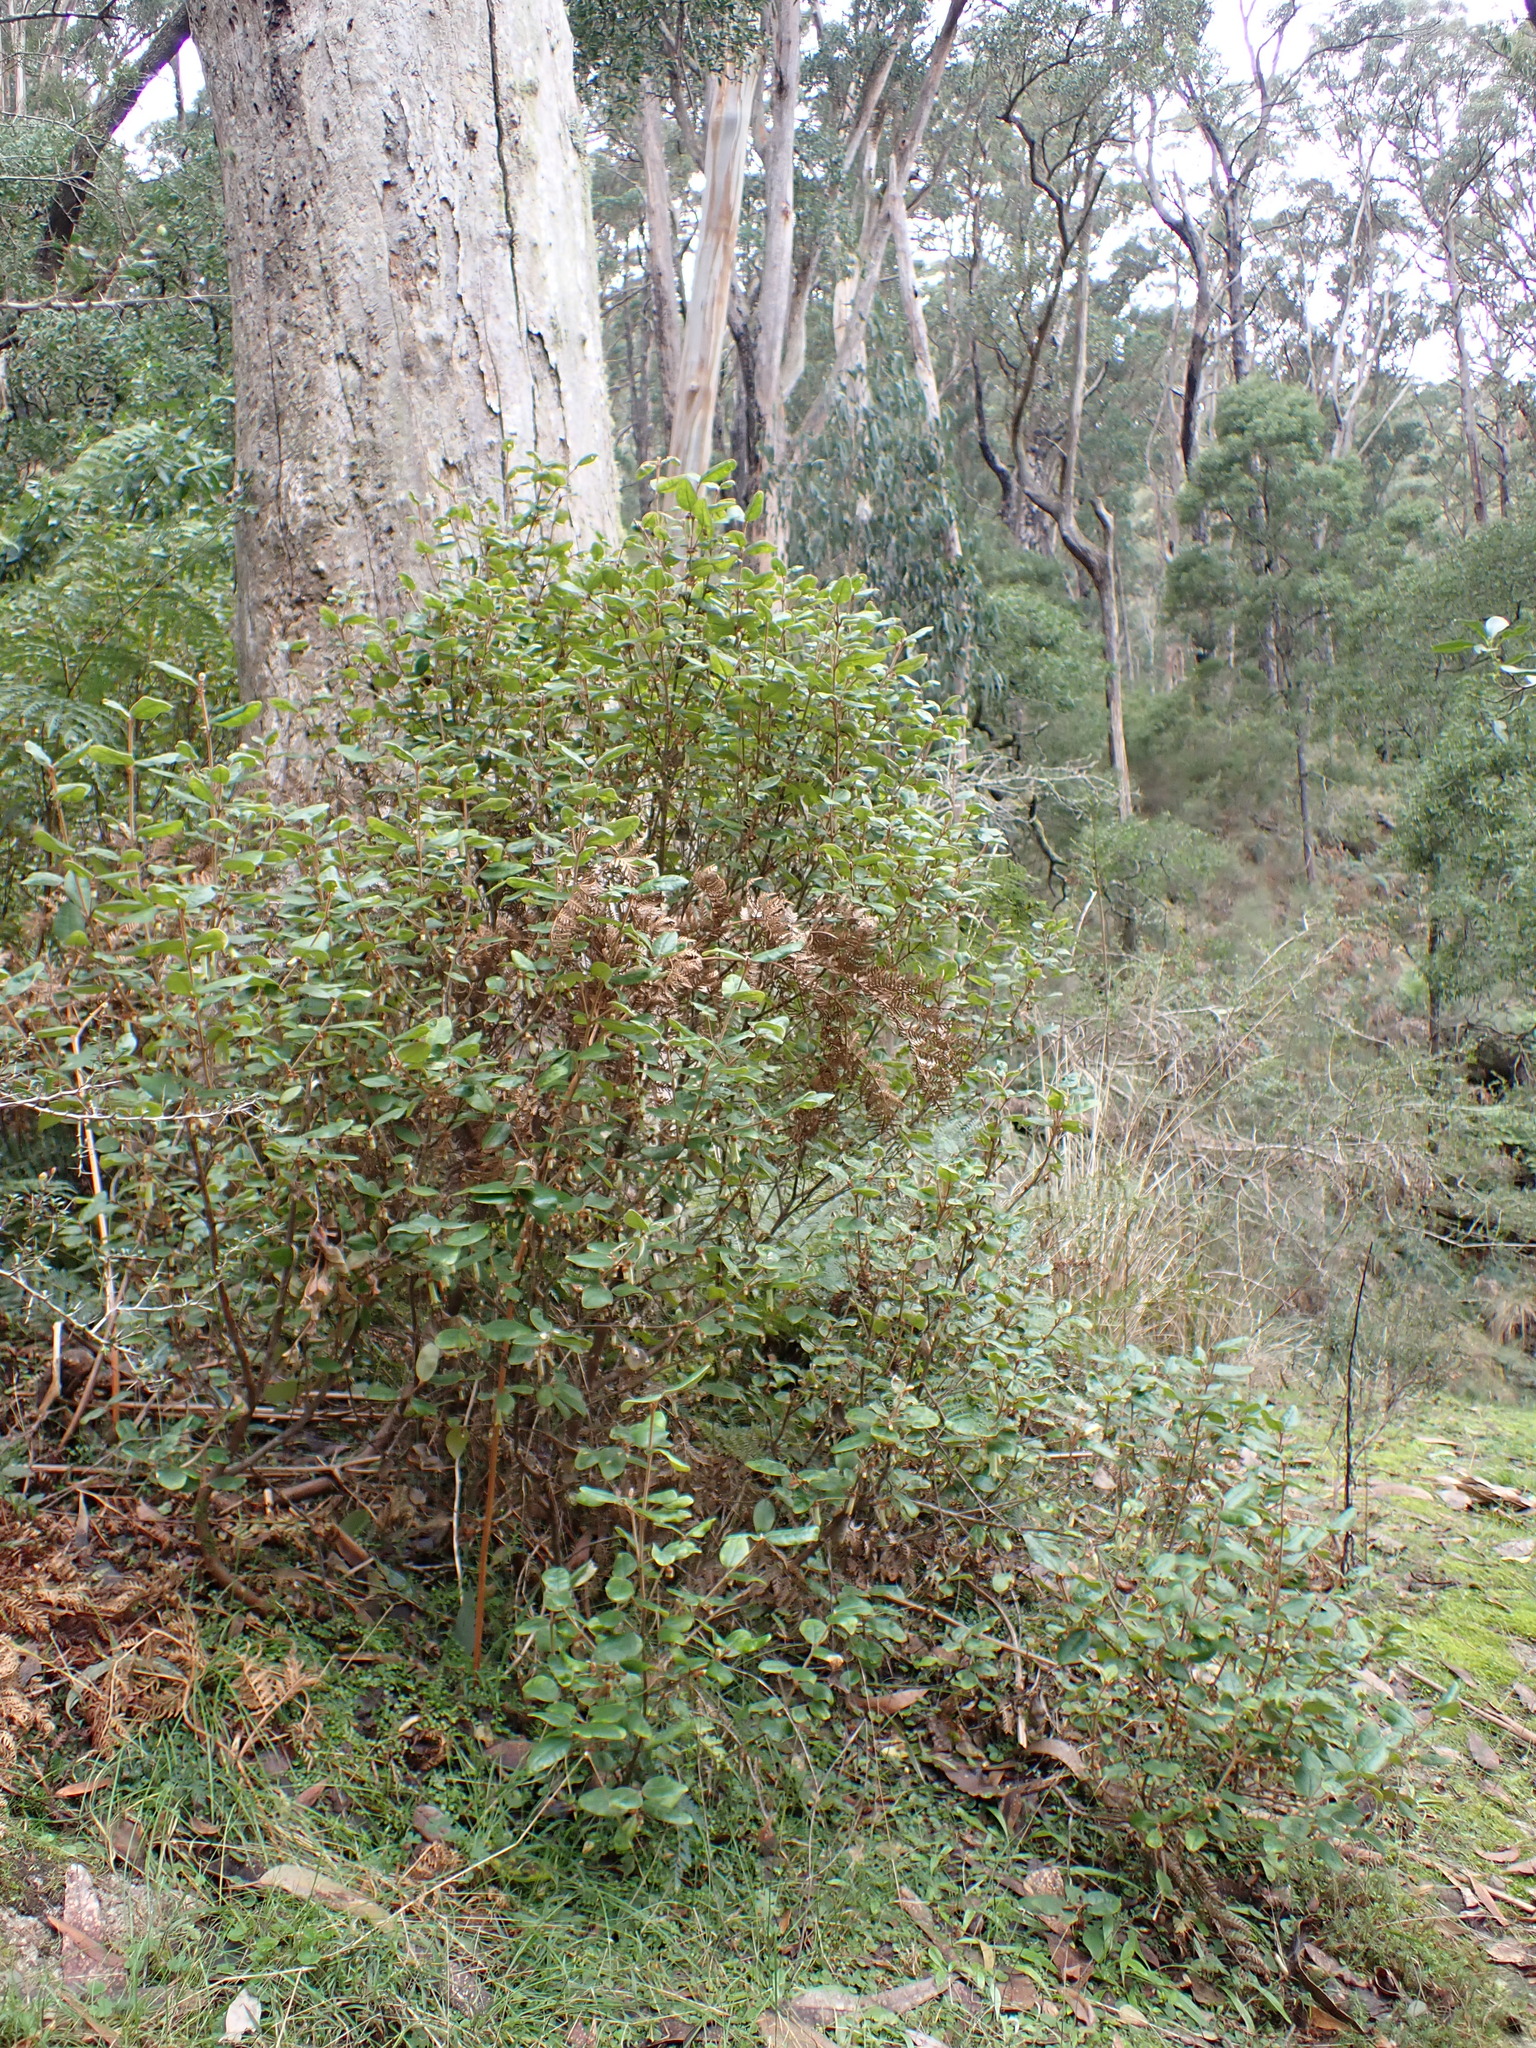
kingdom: Plantae
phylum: Tracheophyta
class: Magnoliopsida
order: Sapindales
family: Rutaceae
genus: Correa
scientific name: Correa lawrenceana
